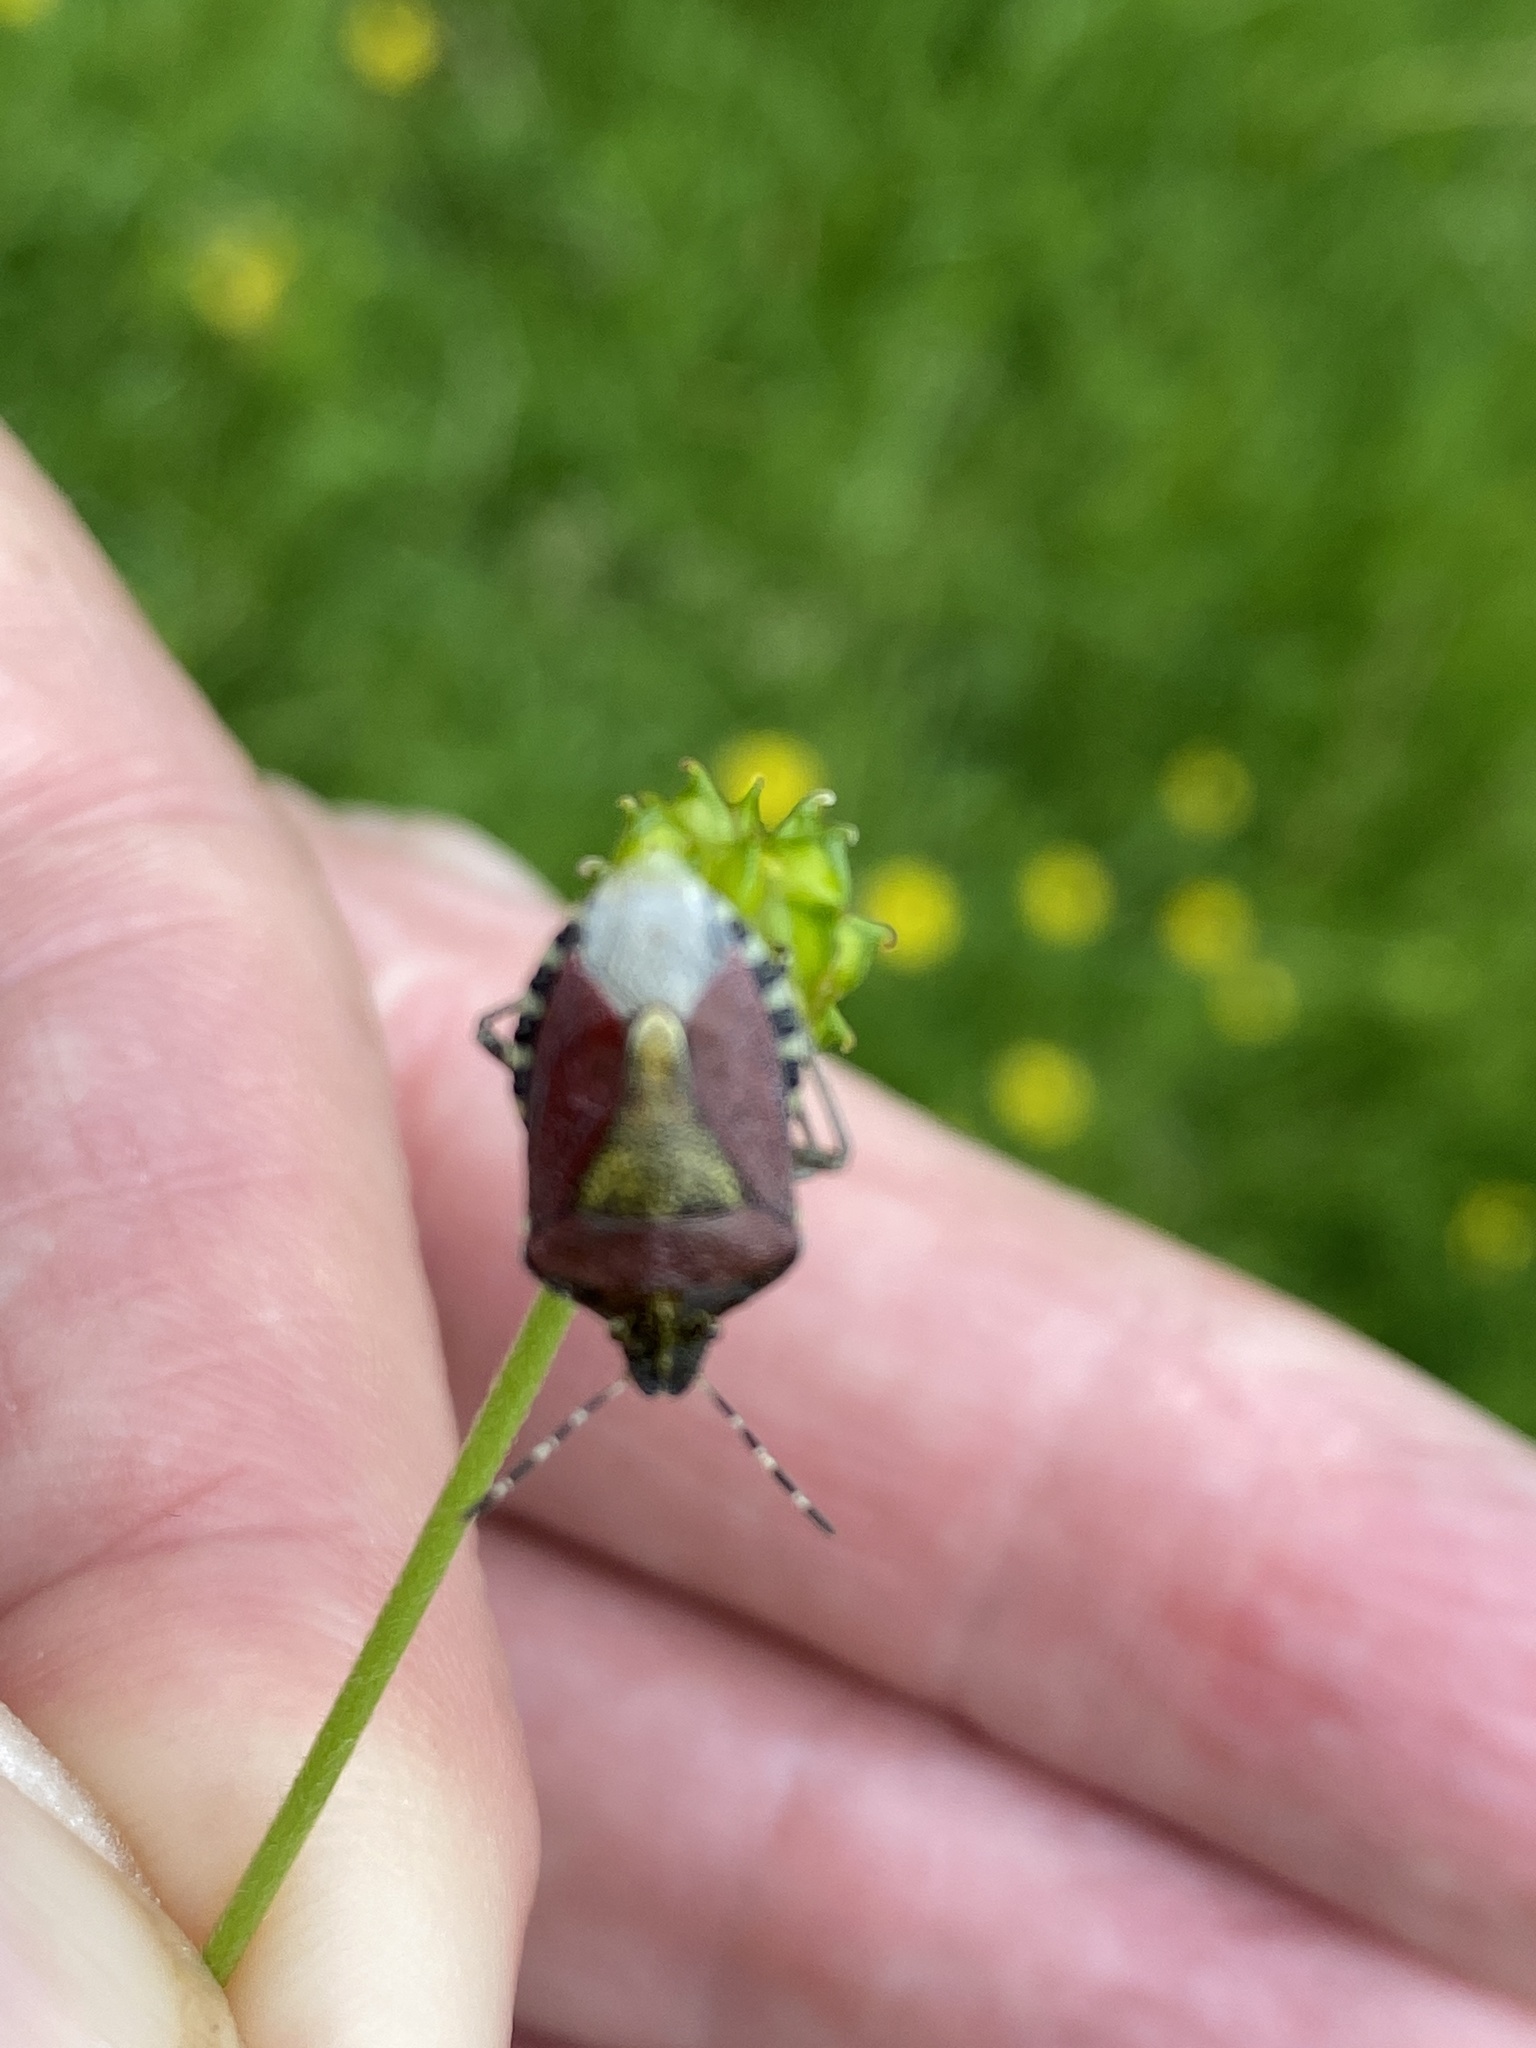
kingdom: Animalia
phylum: Arthropoda
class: Insecta
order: Hemiptera
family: Pentatomidae
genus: Dolycoris
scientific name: Dolycoris baccarum
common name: Sloe bug
